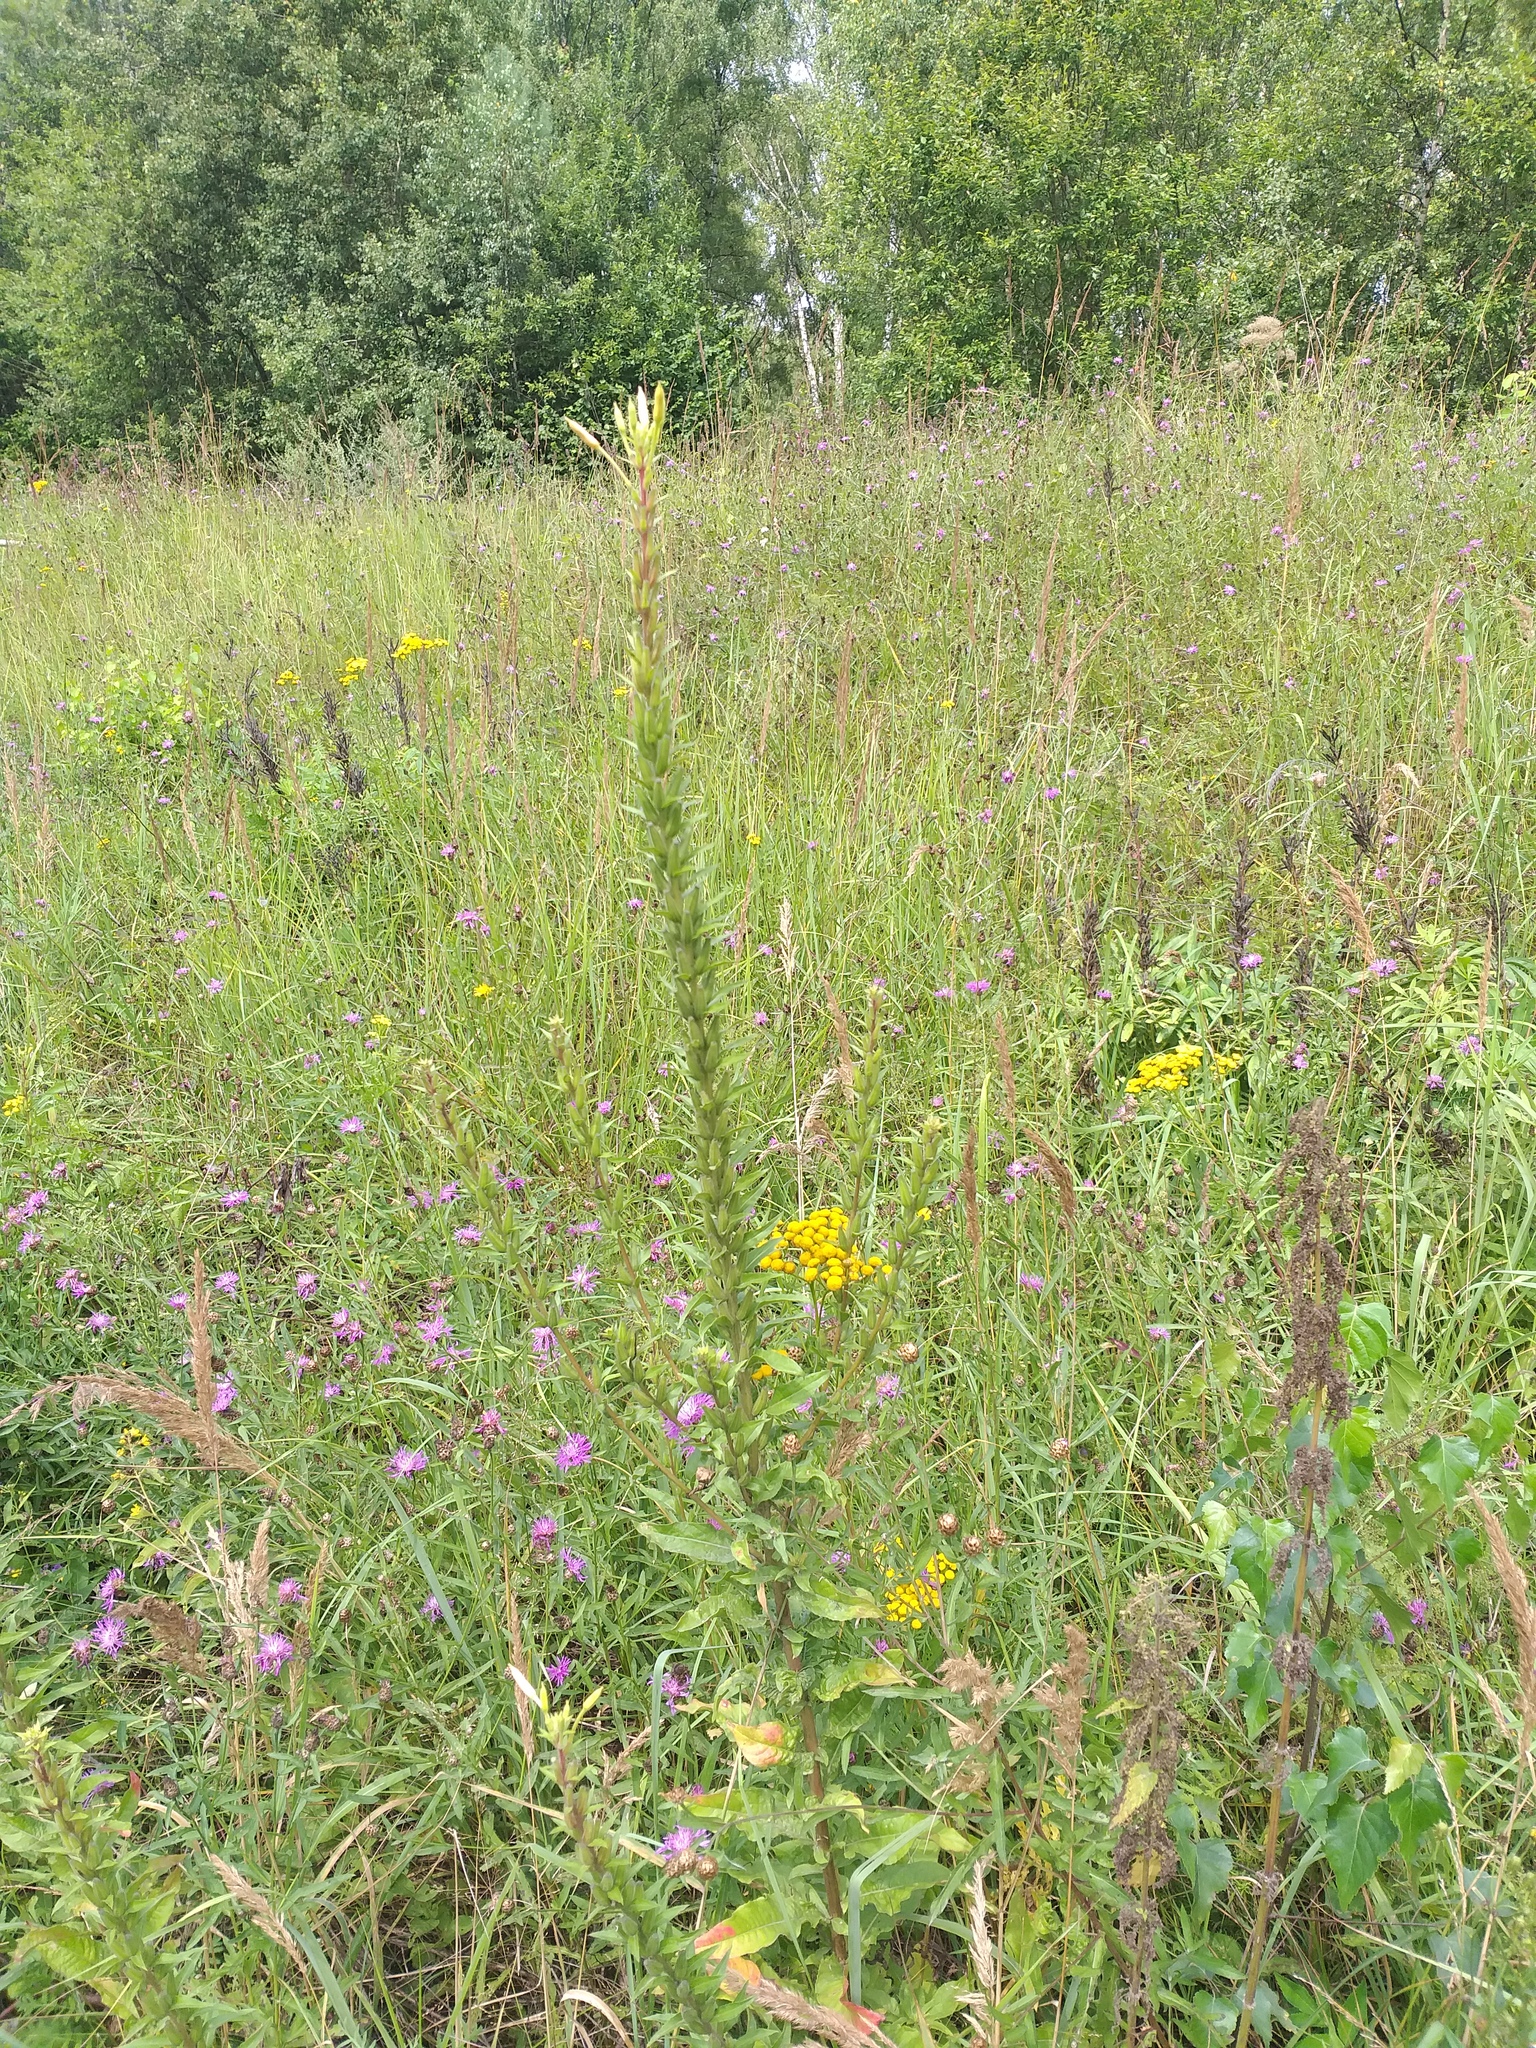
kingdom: Plantae
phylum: Tracheophyta
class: Magnoliopsida
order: Myrtales
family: Onagraceae
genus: Oenothera
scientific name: Oenothera rubricaulis
